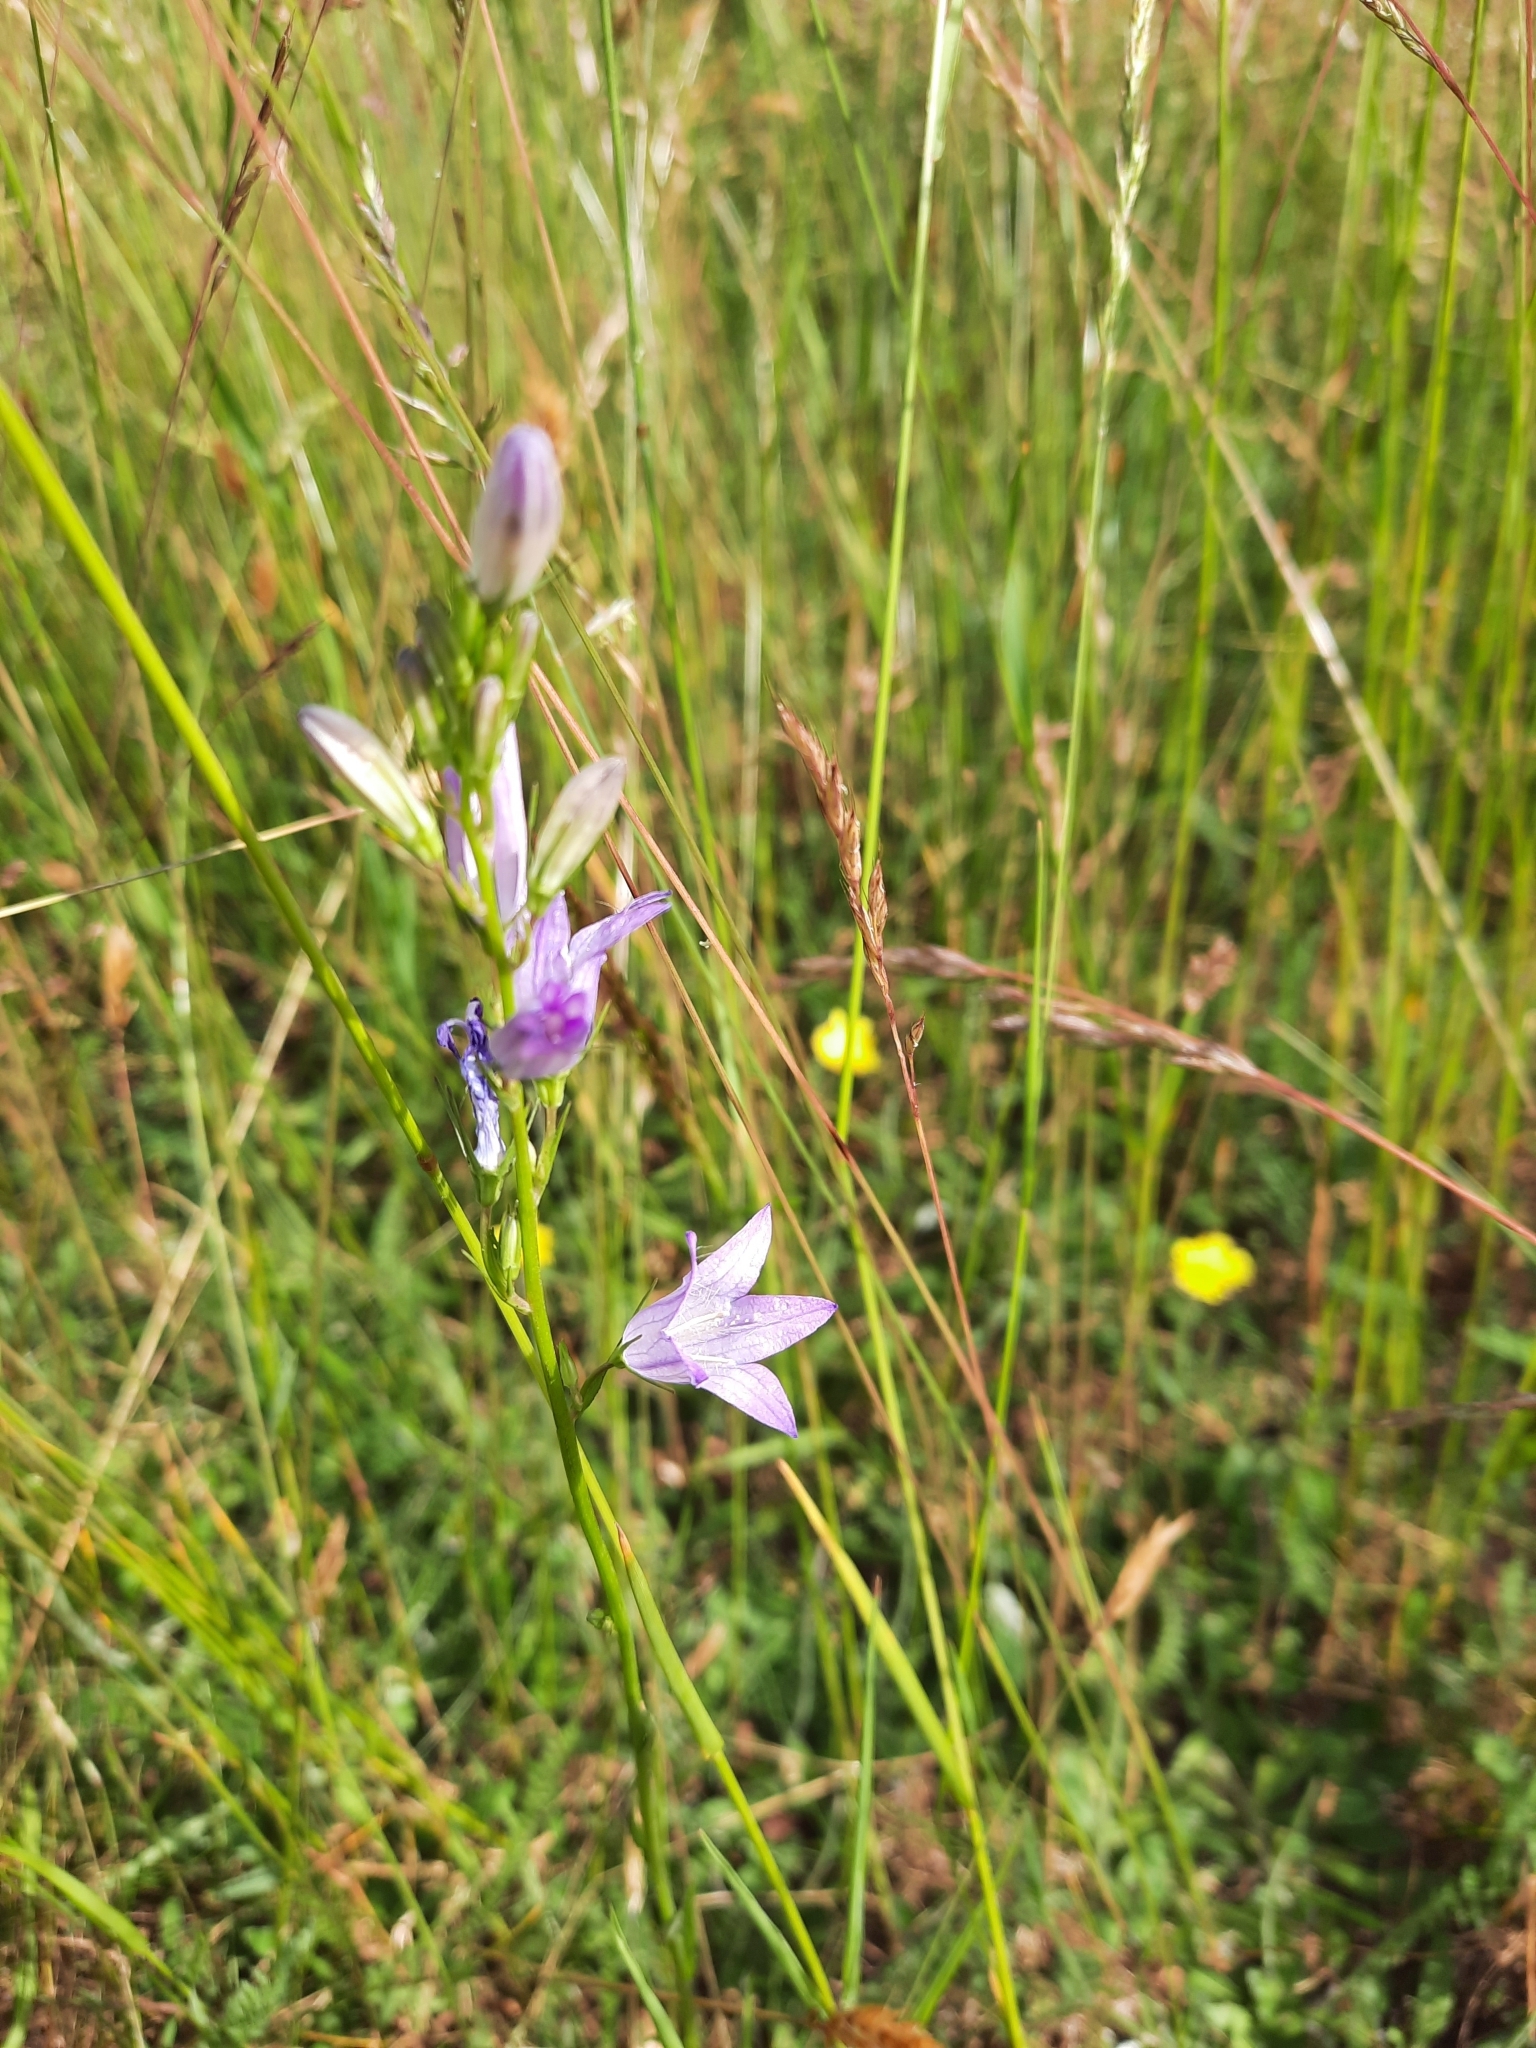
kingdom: Plantae
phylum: Tracheophyta
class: Magnoliopsida
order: Asterales
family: Campanulaceae
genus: Campanula
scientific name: Campanula rapunculus
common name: Rampion bellflower
